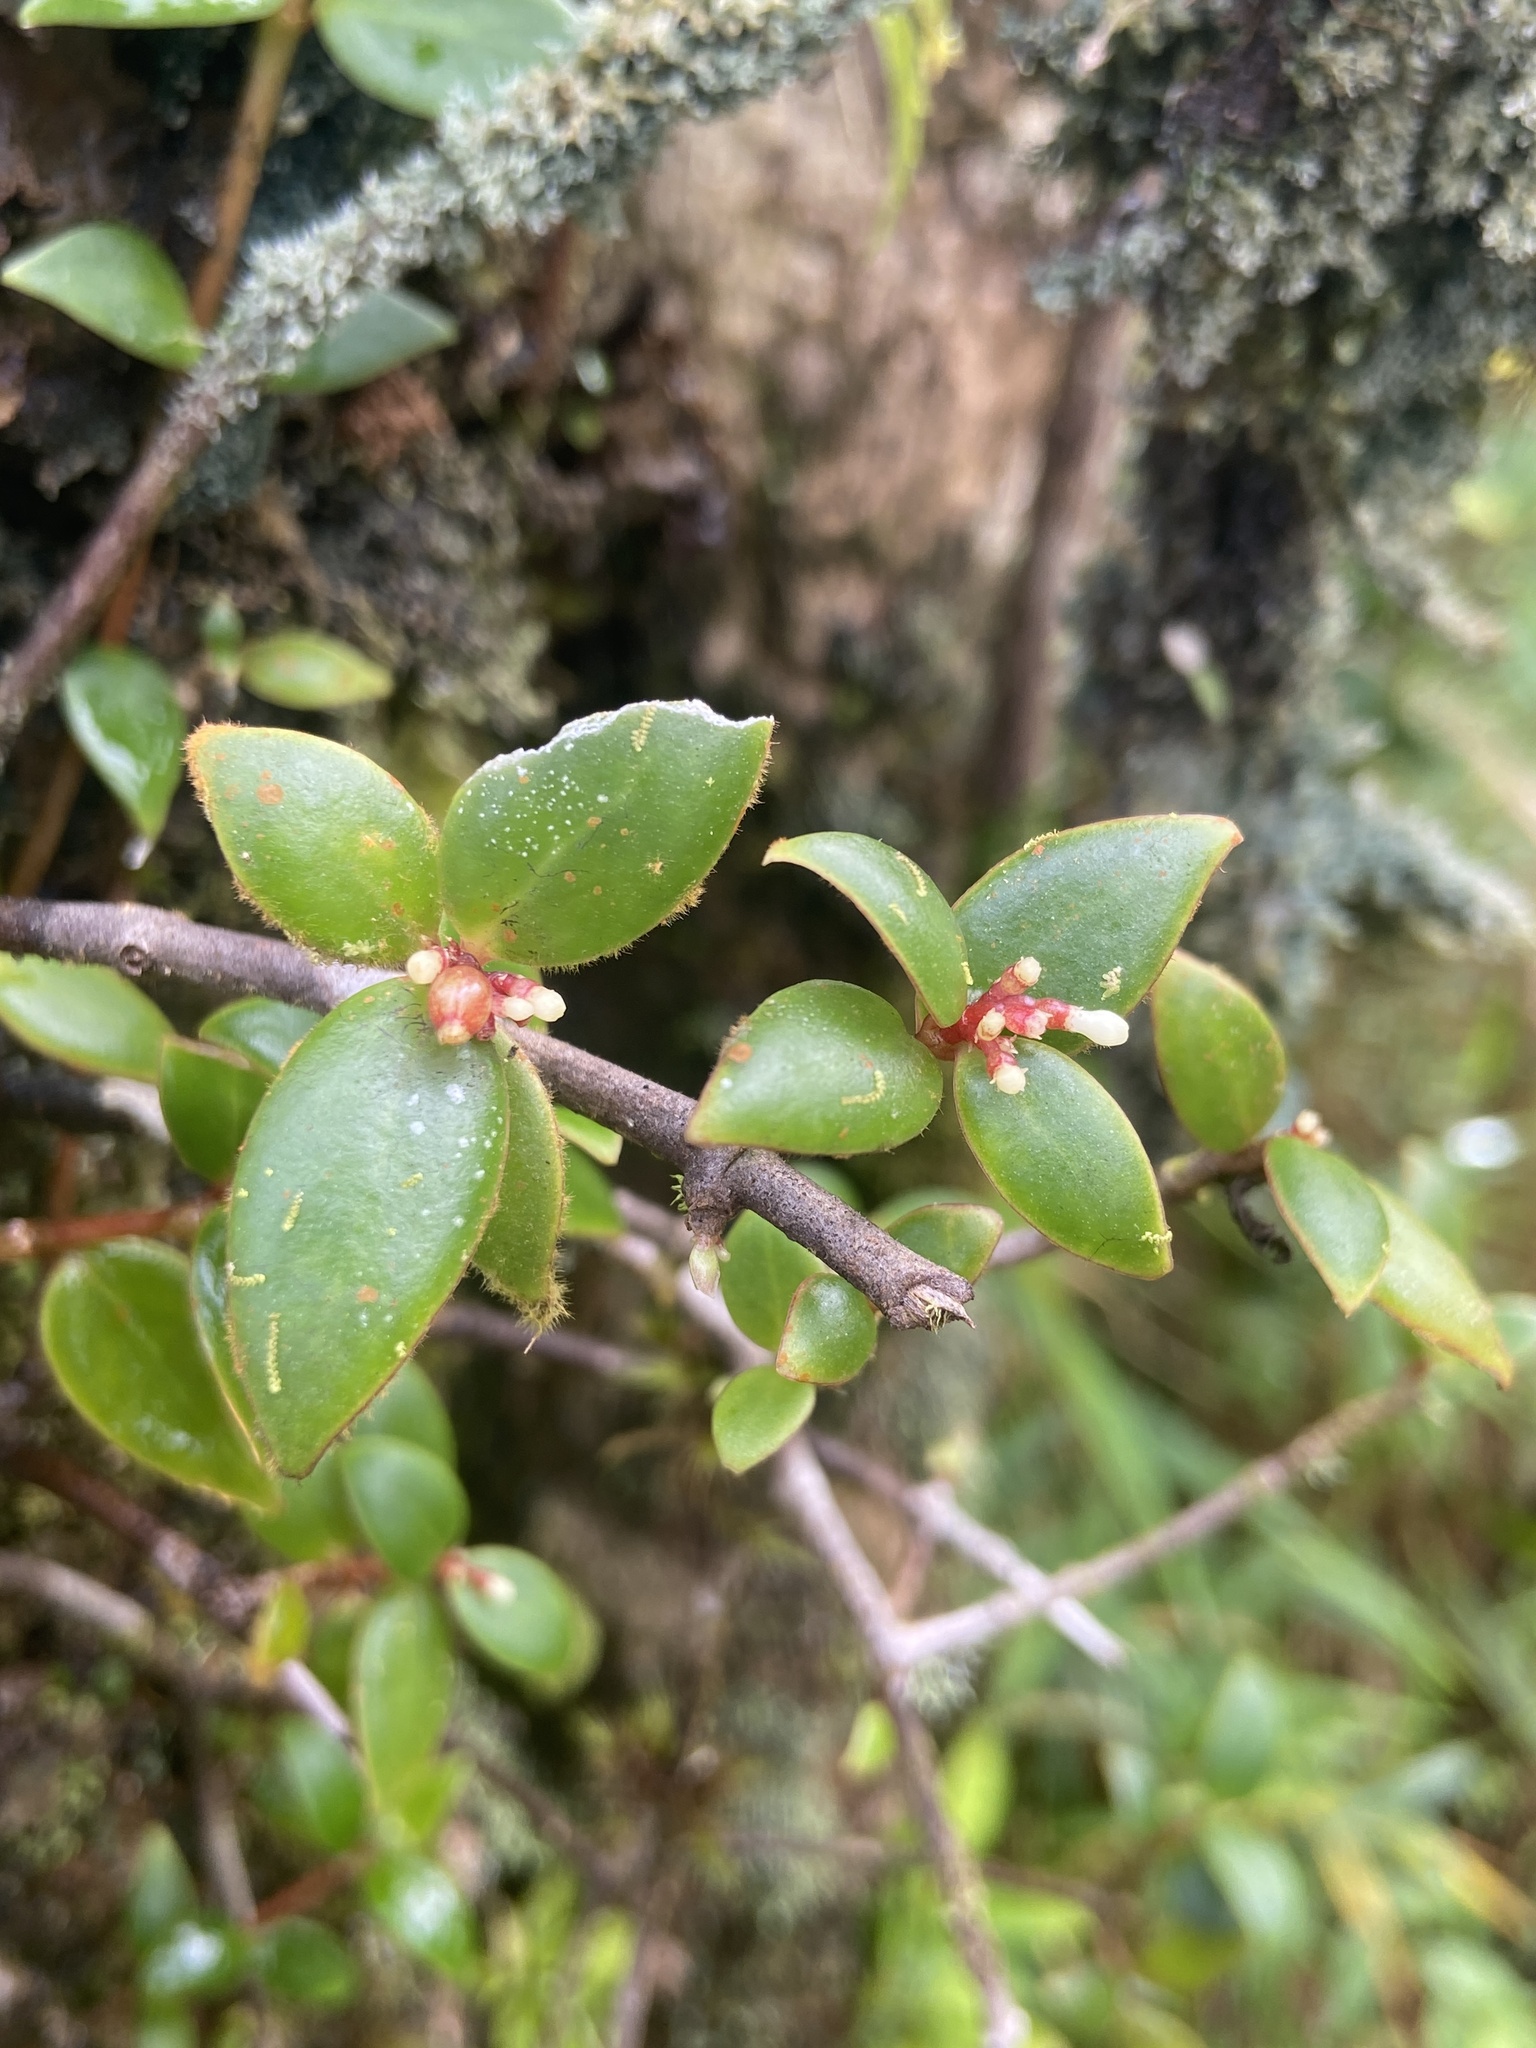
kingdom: Plantae
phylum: Tracheophyta
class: Magnoliopsida
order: Gentianales
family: Rubiaceae
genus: Notopleura
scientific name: Notopleura parasitica
